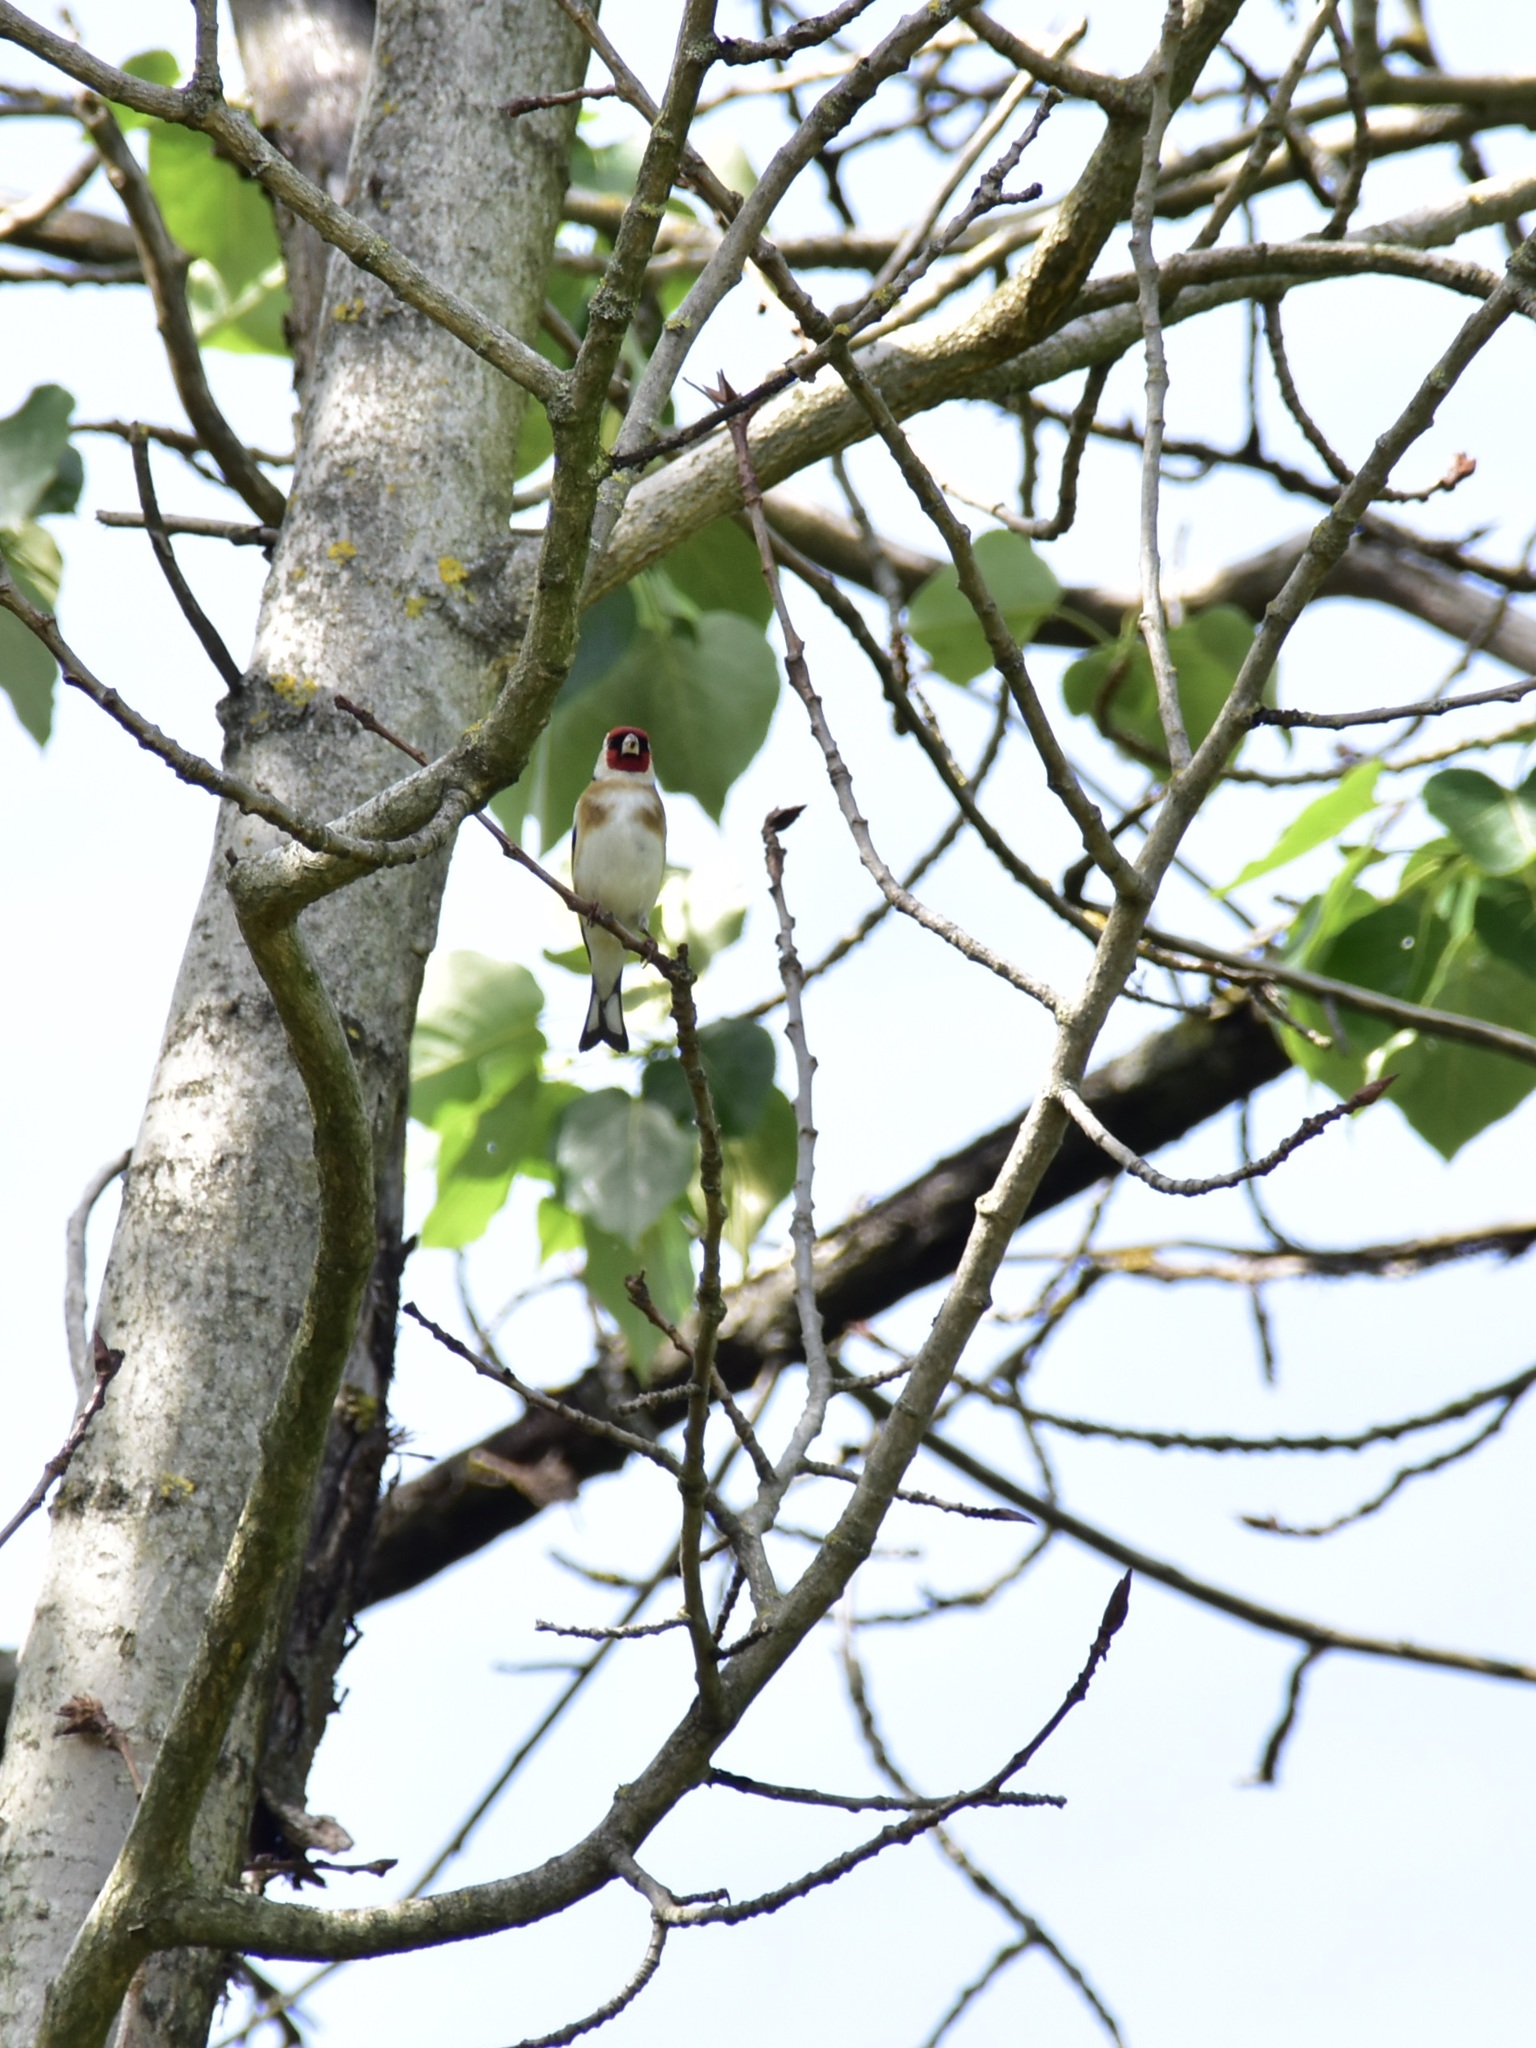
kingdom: Animalia
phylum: Chordata
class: Aves
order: Passeriformes
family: Fringillidae
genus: Carduelis
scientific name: Carduelis carduelis
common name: European goldfinch
